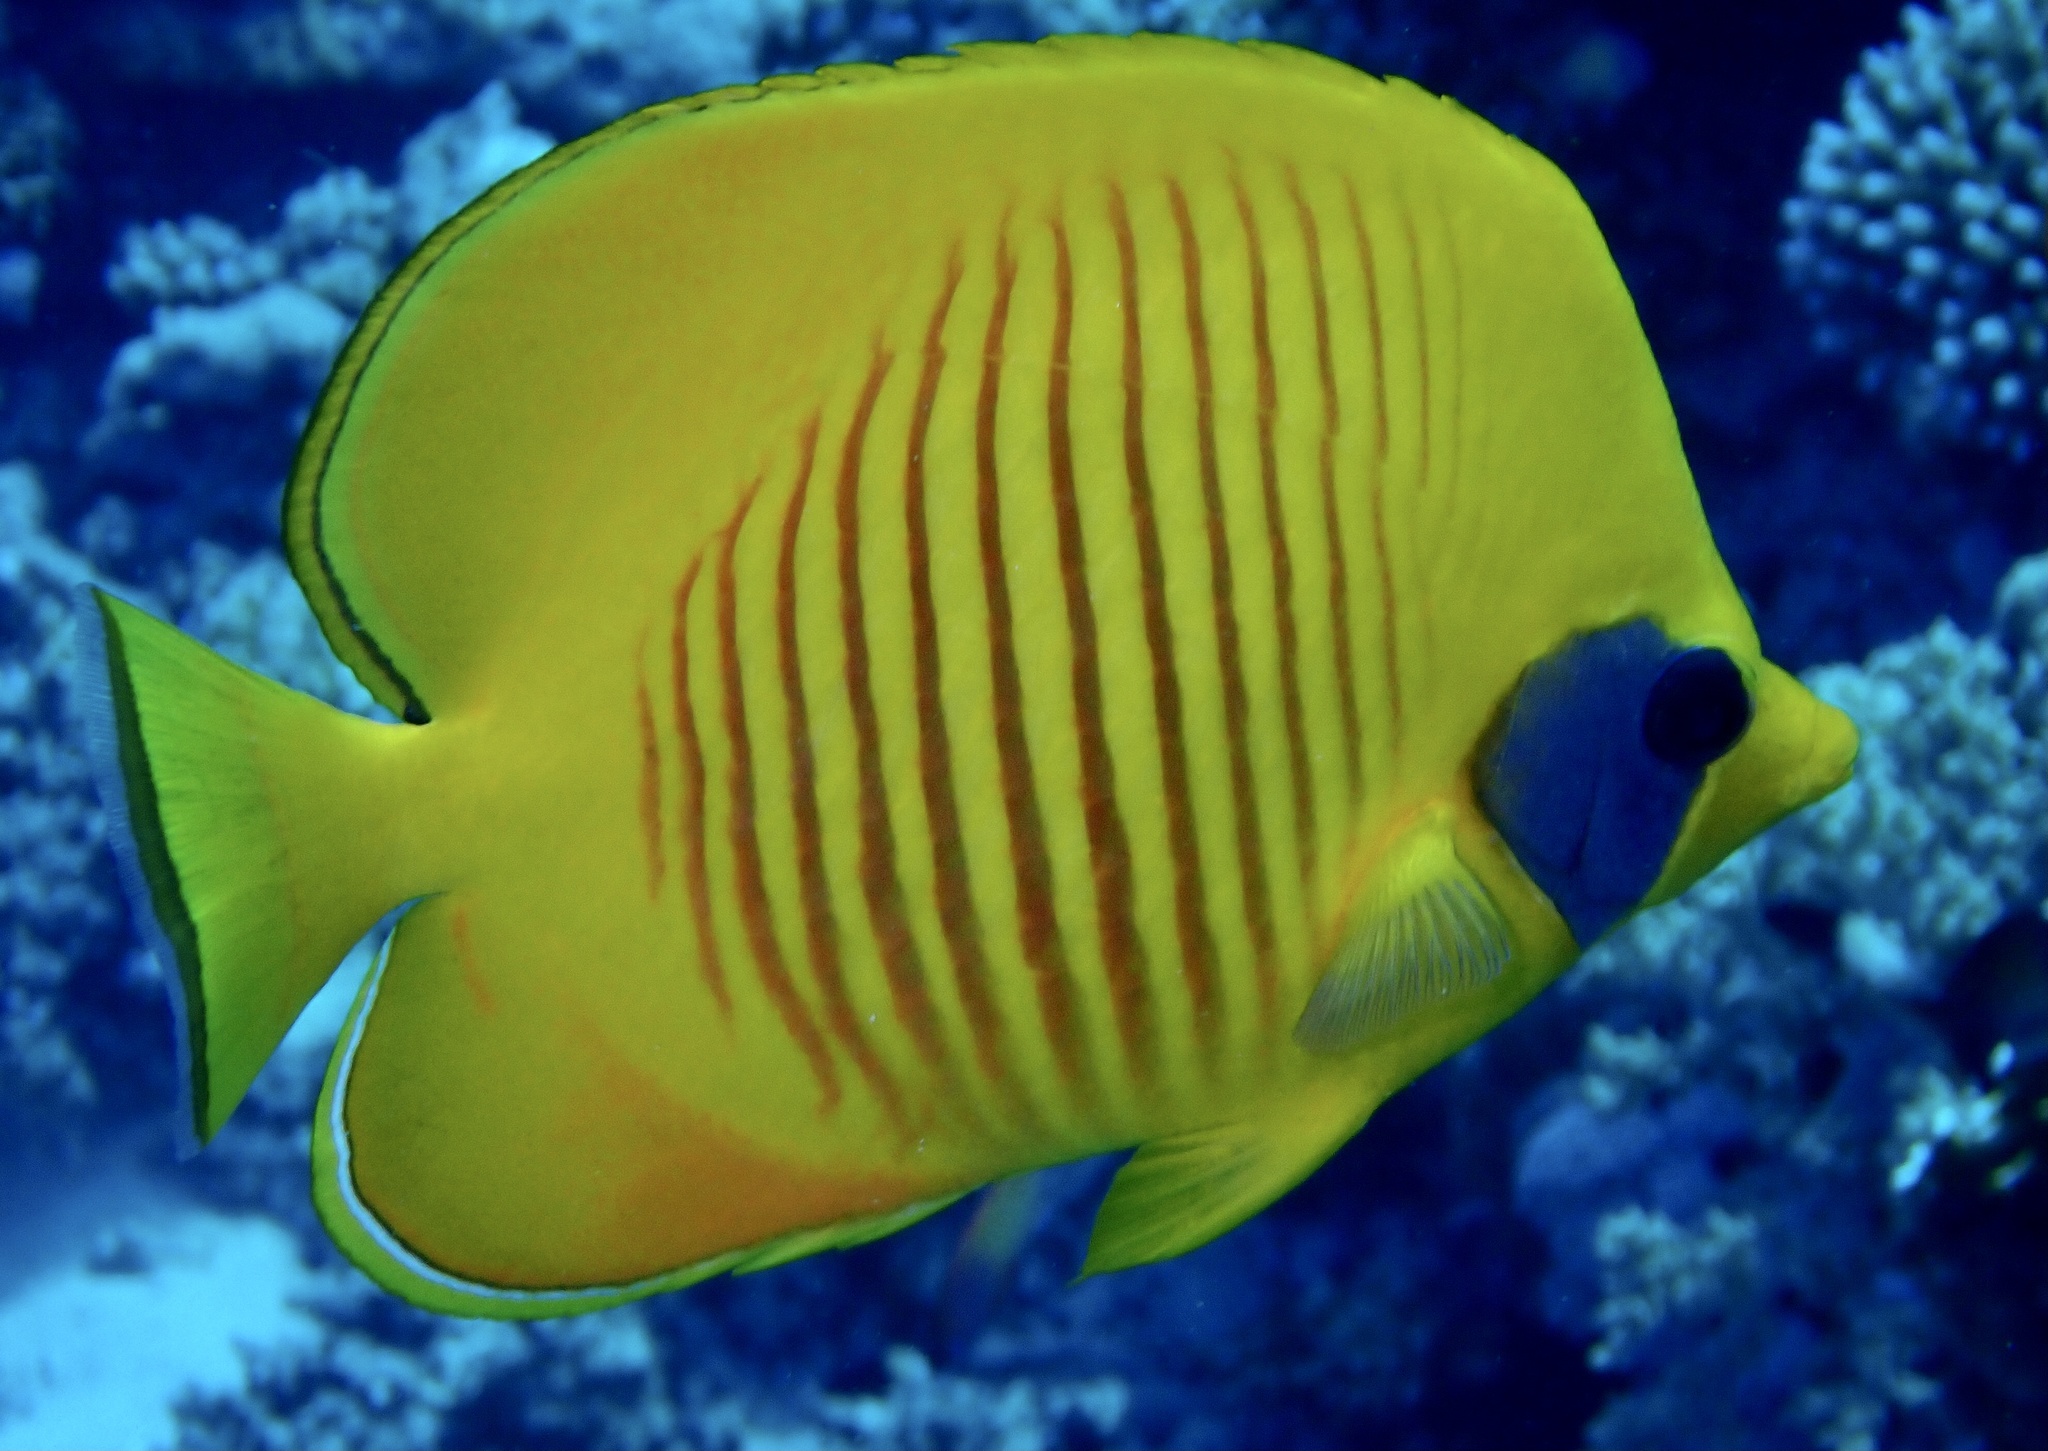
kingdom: Animalia
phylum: Chordata
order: Perciformes
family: Chaetodontidae
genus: Chaetodon
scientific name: Chaetodon semilarvatus
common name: Golden butterflyfish
